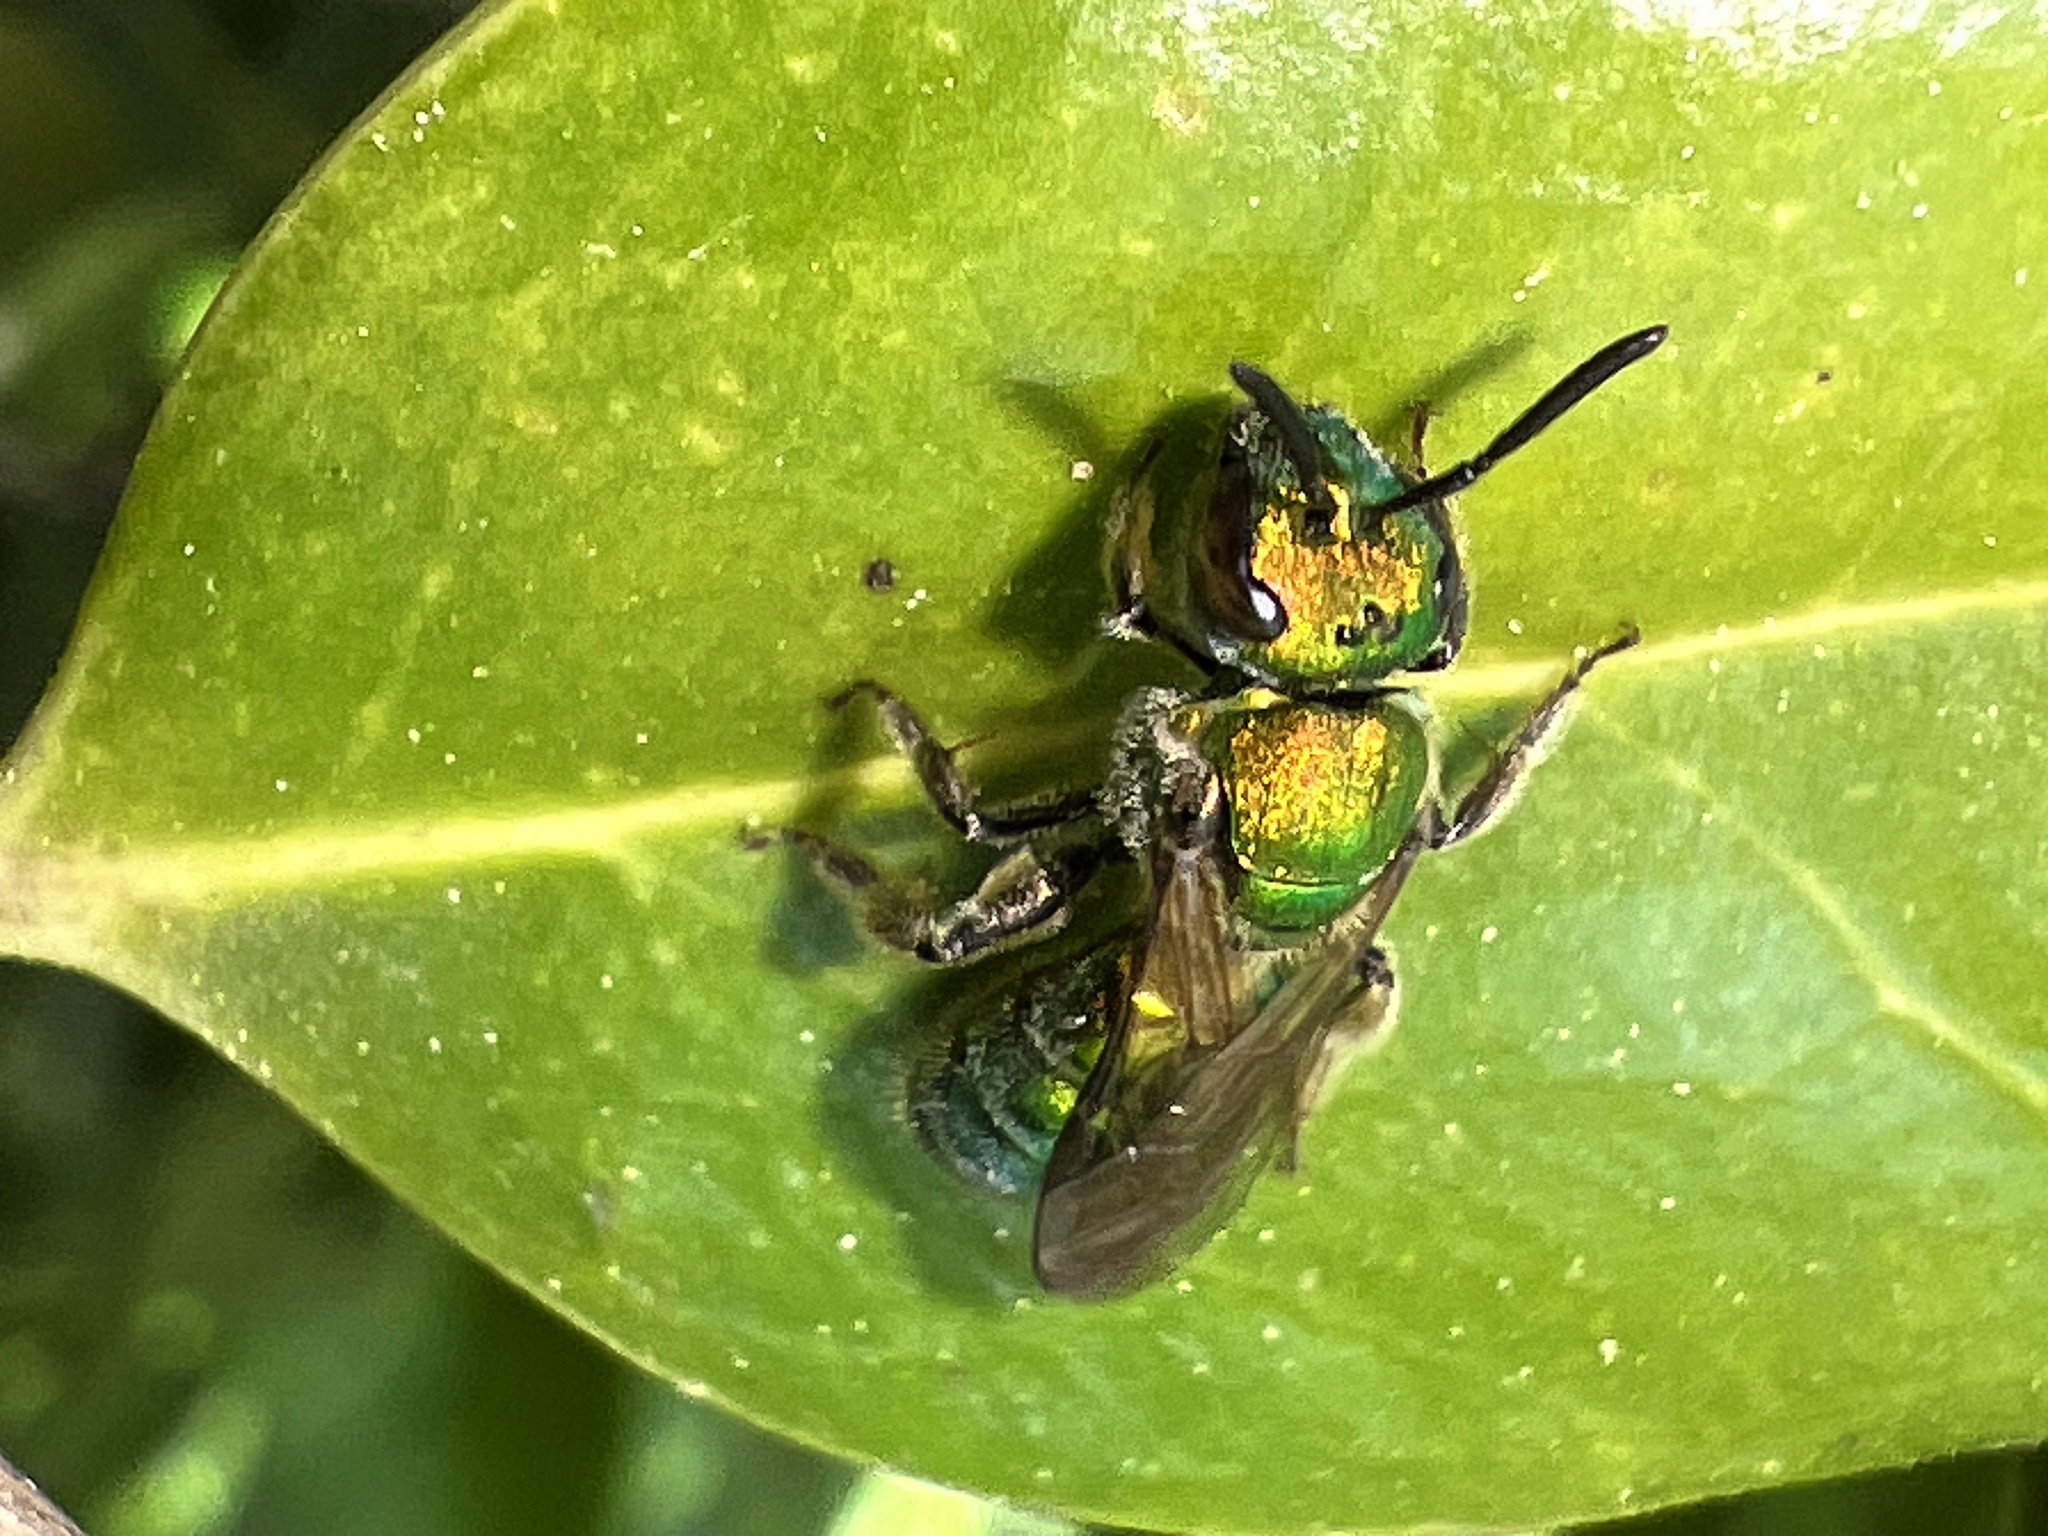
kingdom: Animalia
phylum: Arthropoda
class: Insecta
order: Hymenoptera
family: Halictidae
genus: Augochlora
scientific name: Augochlora pura
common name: Pure green sweat bee
